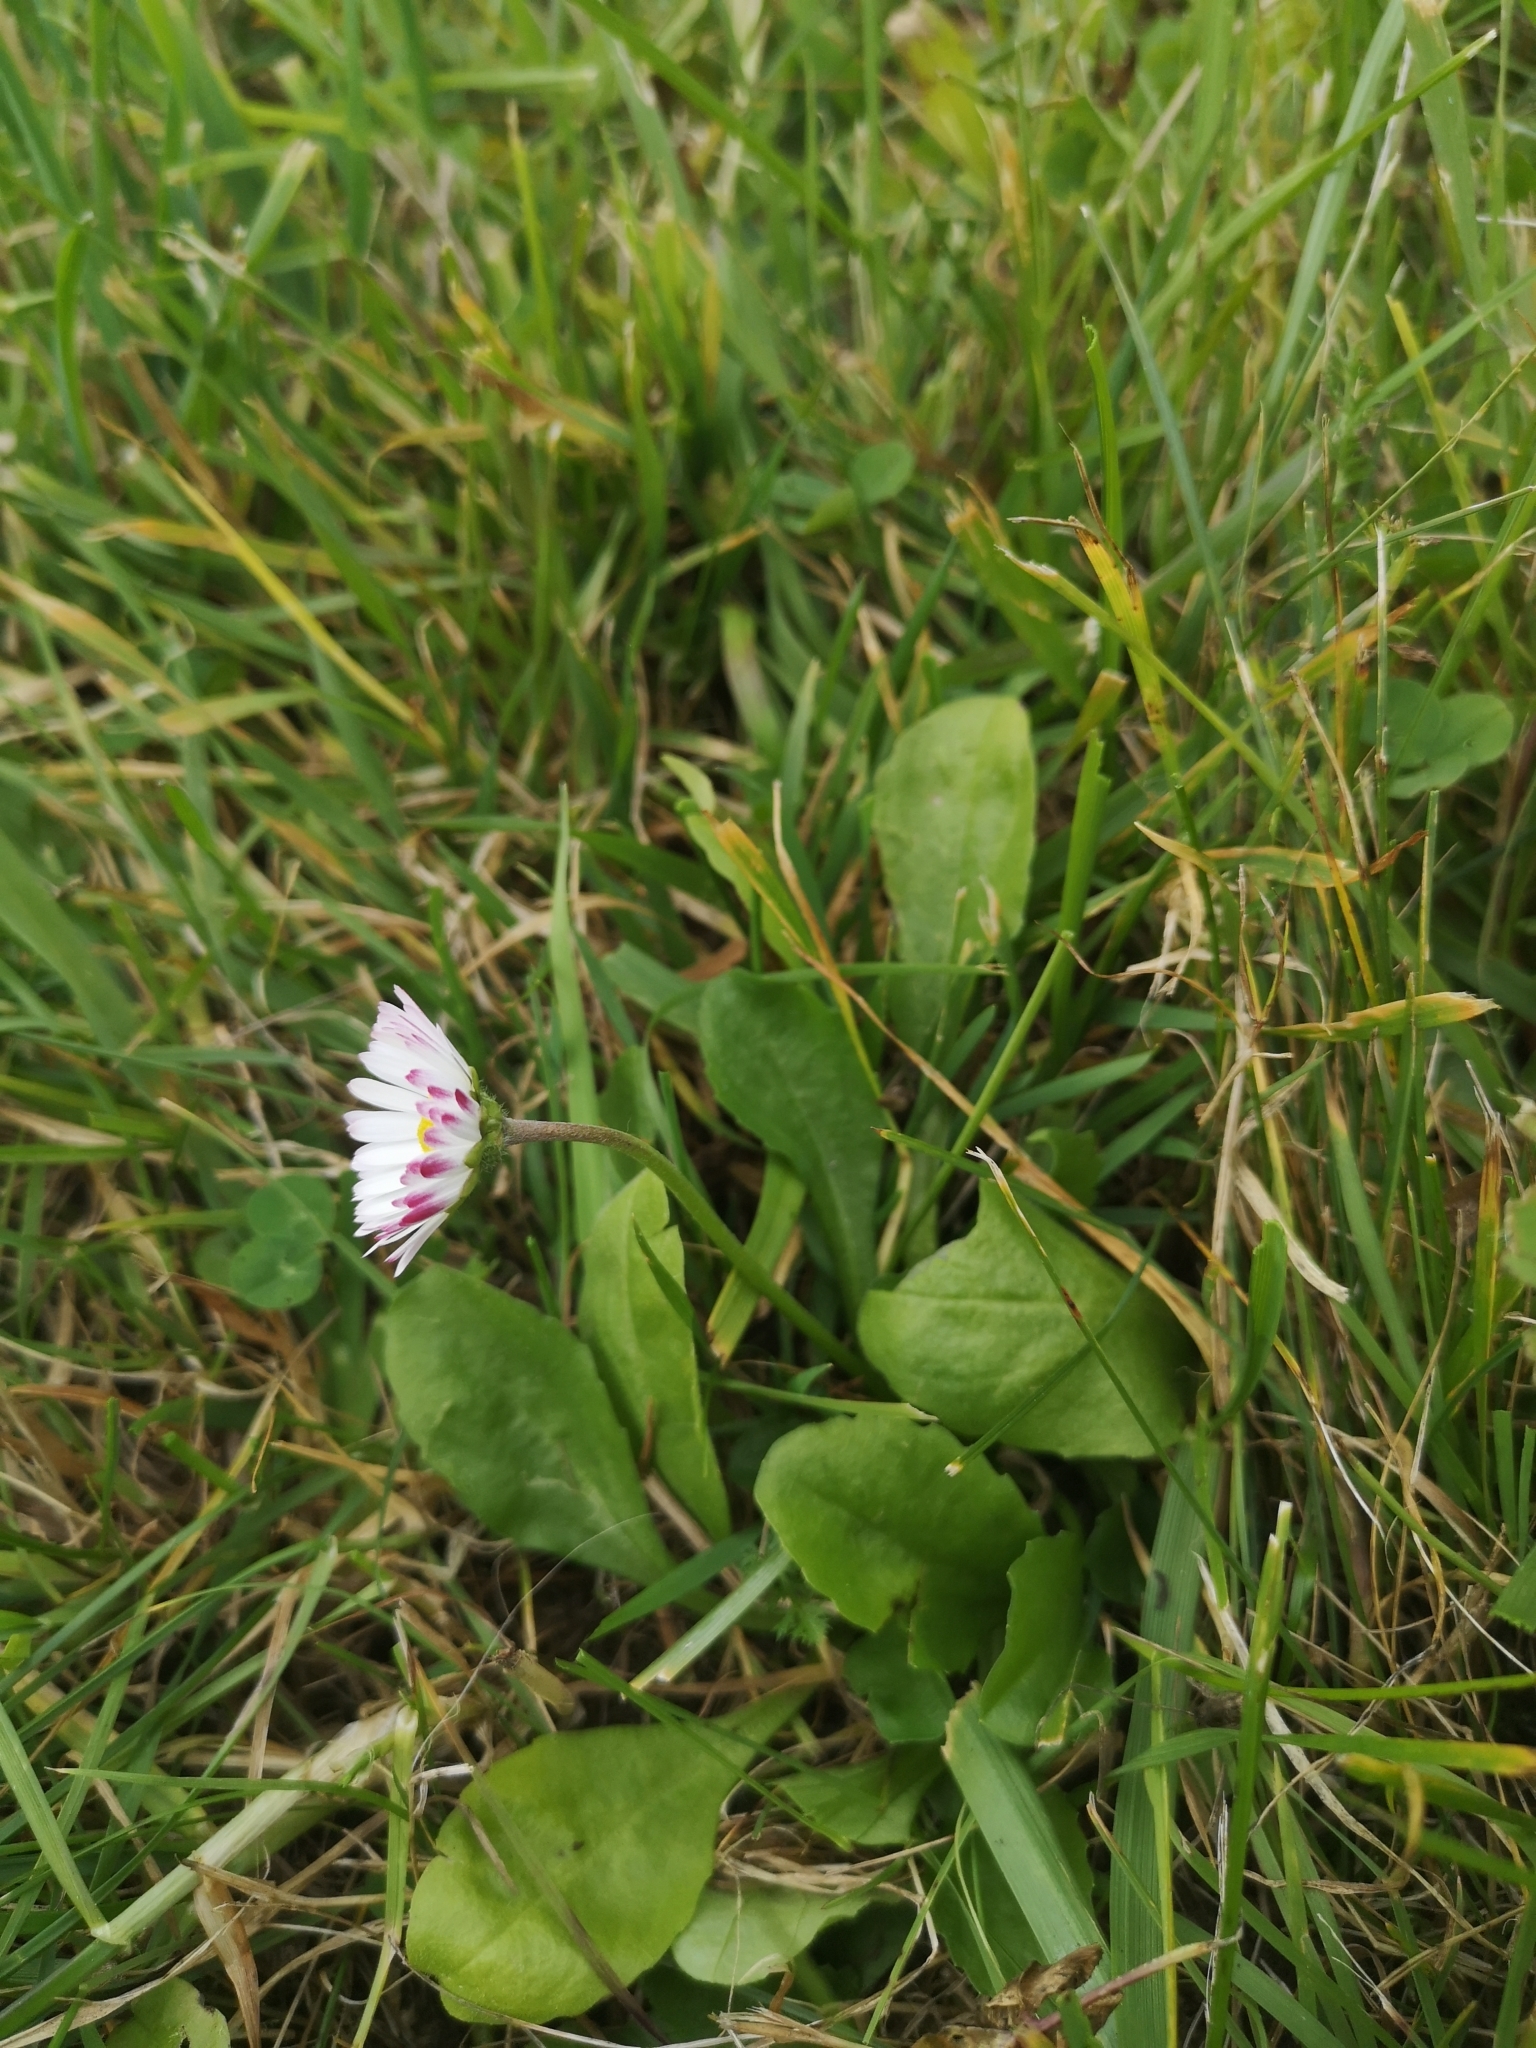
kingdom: Plantae
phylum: Tracheophyta
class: Magnoliopsida
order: Asterales
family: Asteraceae
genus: Bellis
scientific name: Bellis perennis
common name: Lawndaisy
